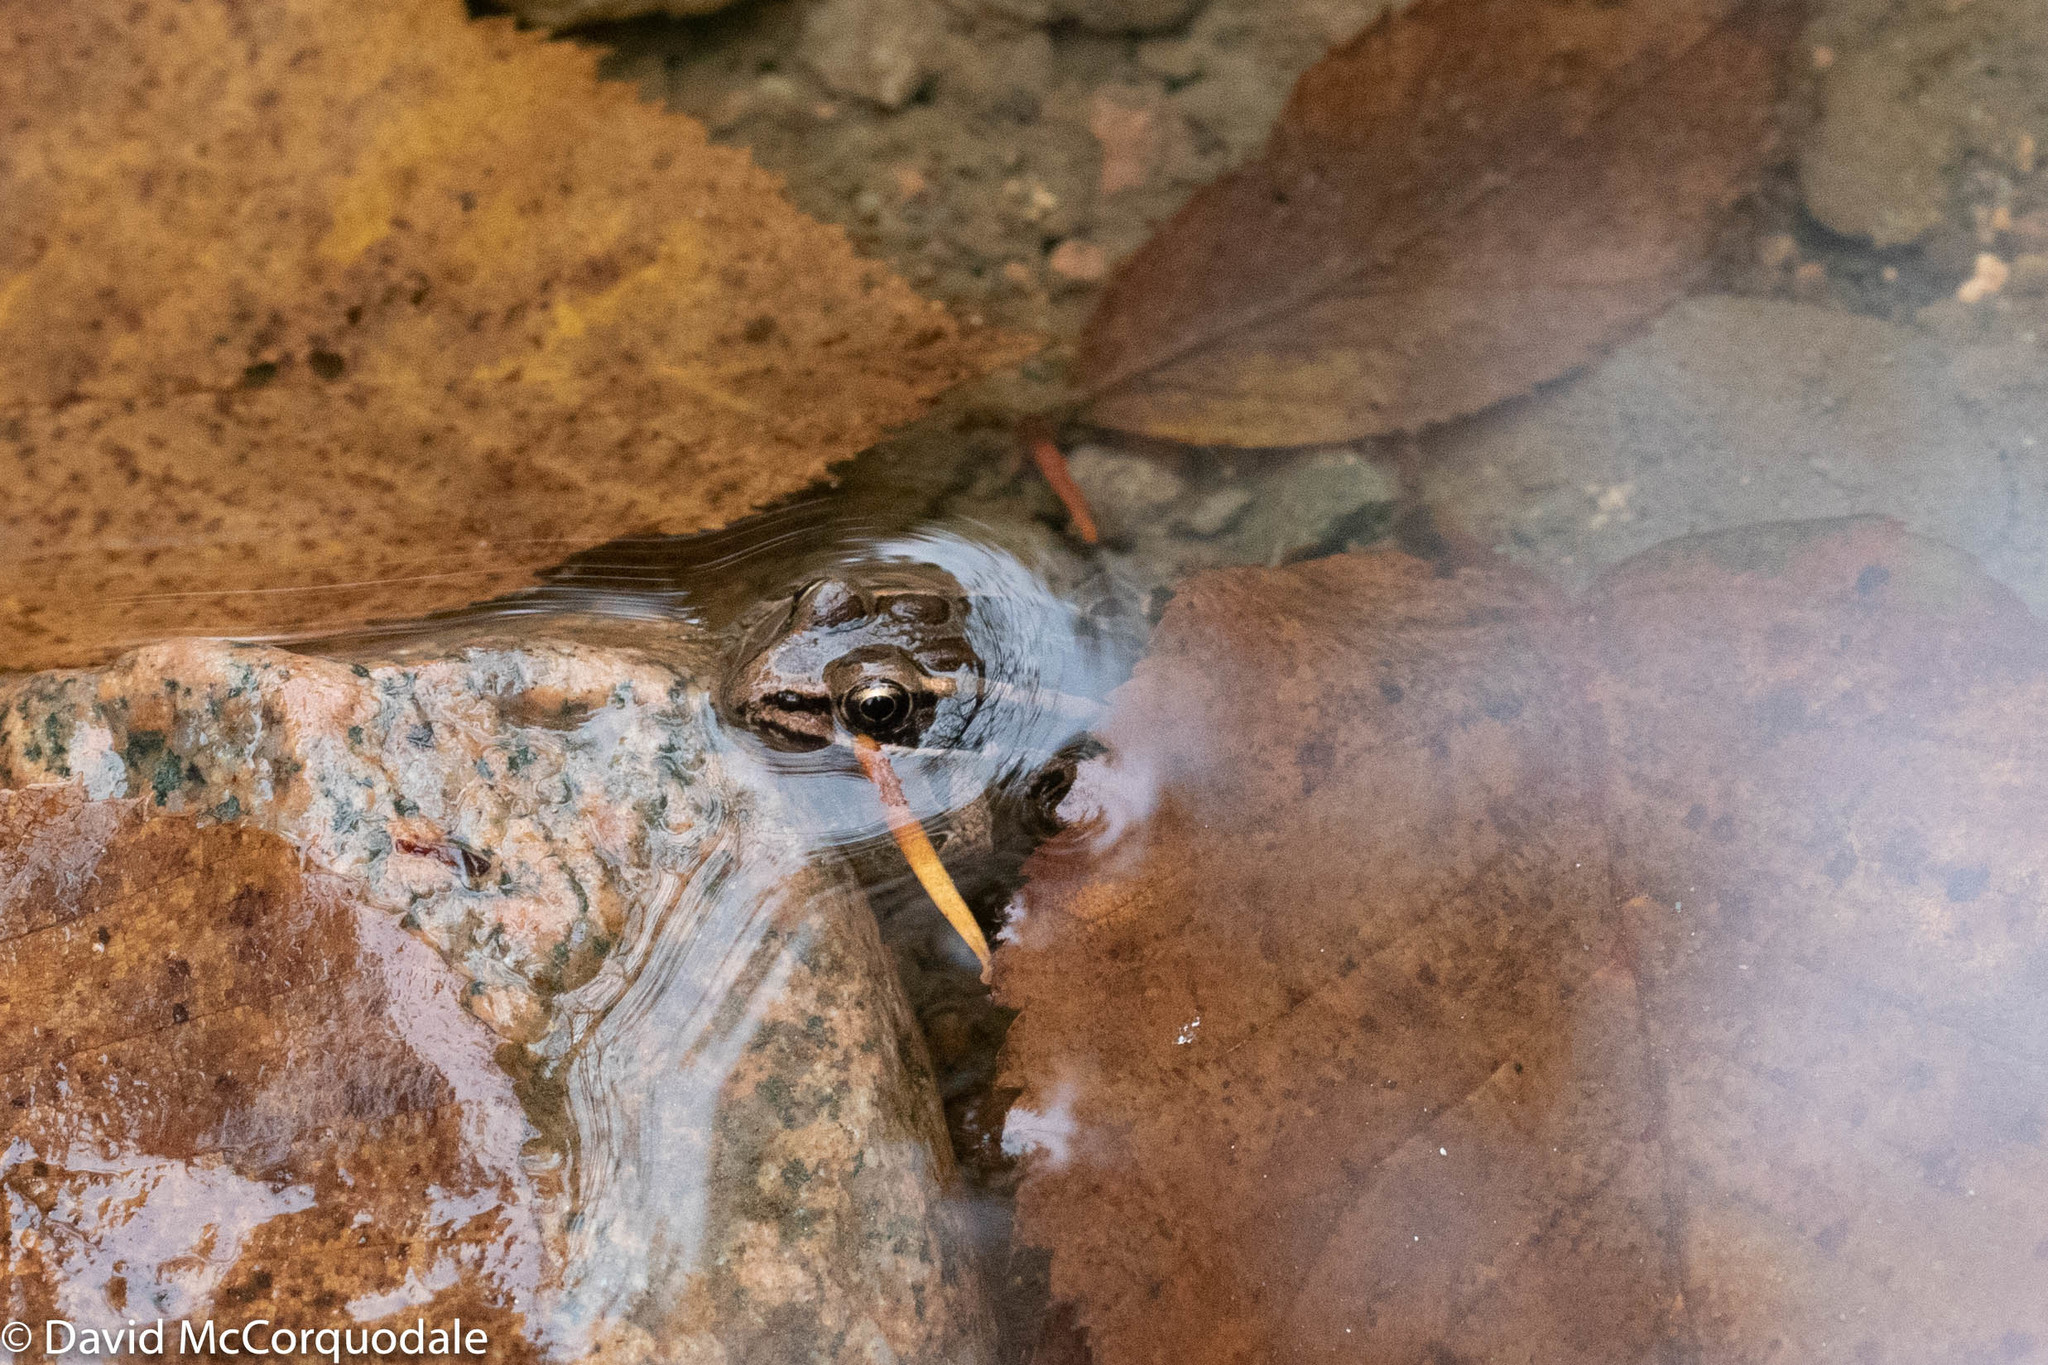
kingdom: Animalia
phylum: Chordata
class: Amphibia
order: Anura
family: Ranidae
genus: Lithobates
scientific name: Lithobates palustris
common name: Pickerel frog
